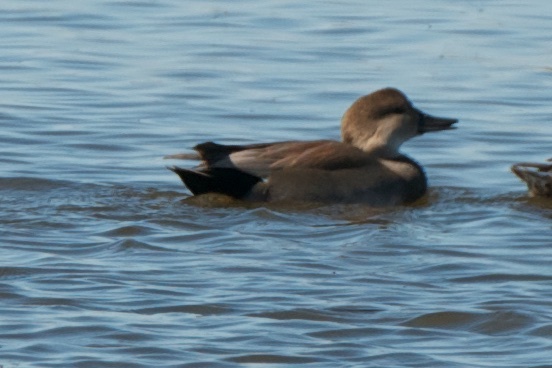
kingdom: Animalia
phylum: Chordata
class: Aves
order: Anseriformes
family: Anatidae
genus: Mareca
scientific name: Mareca strepera
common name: Gadwall
